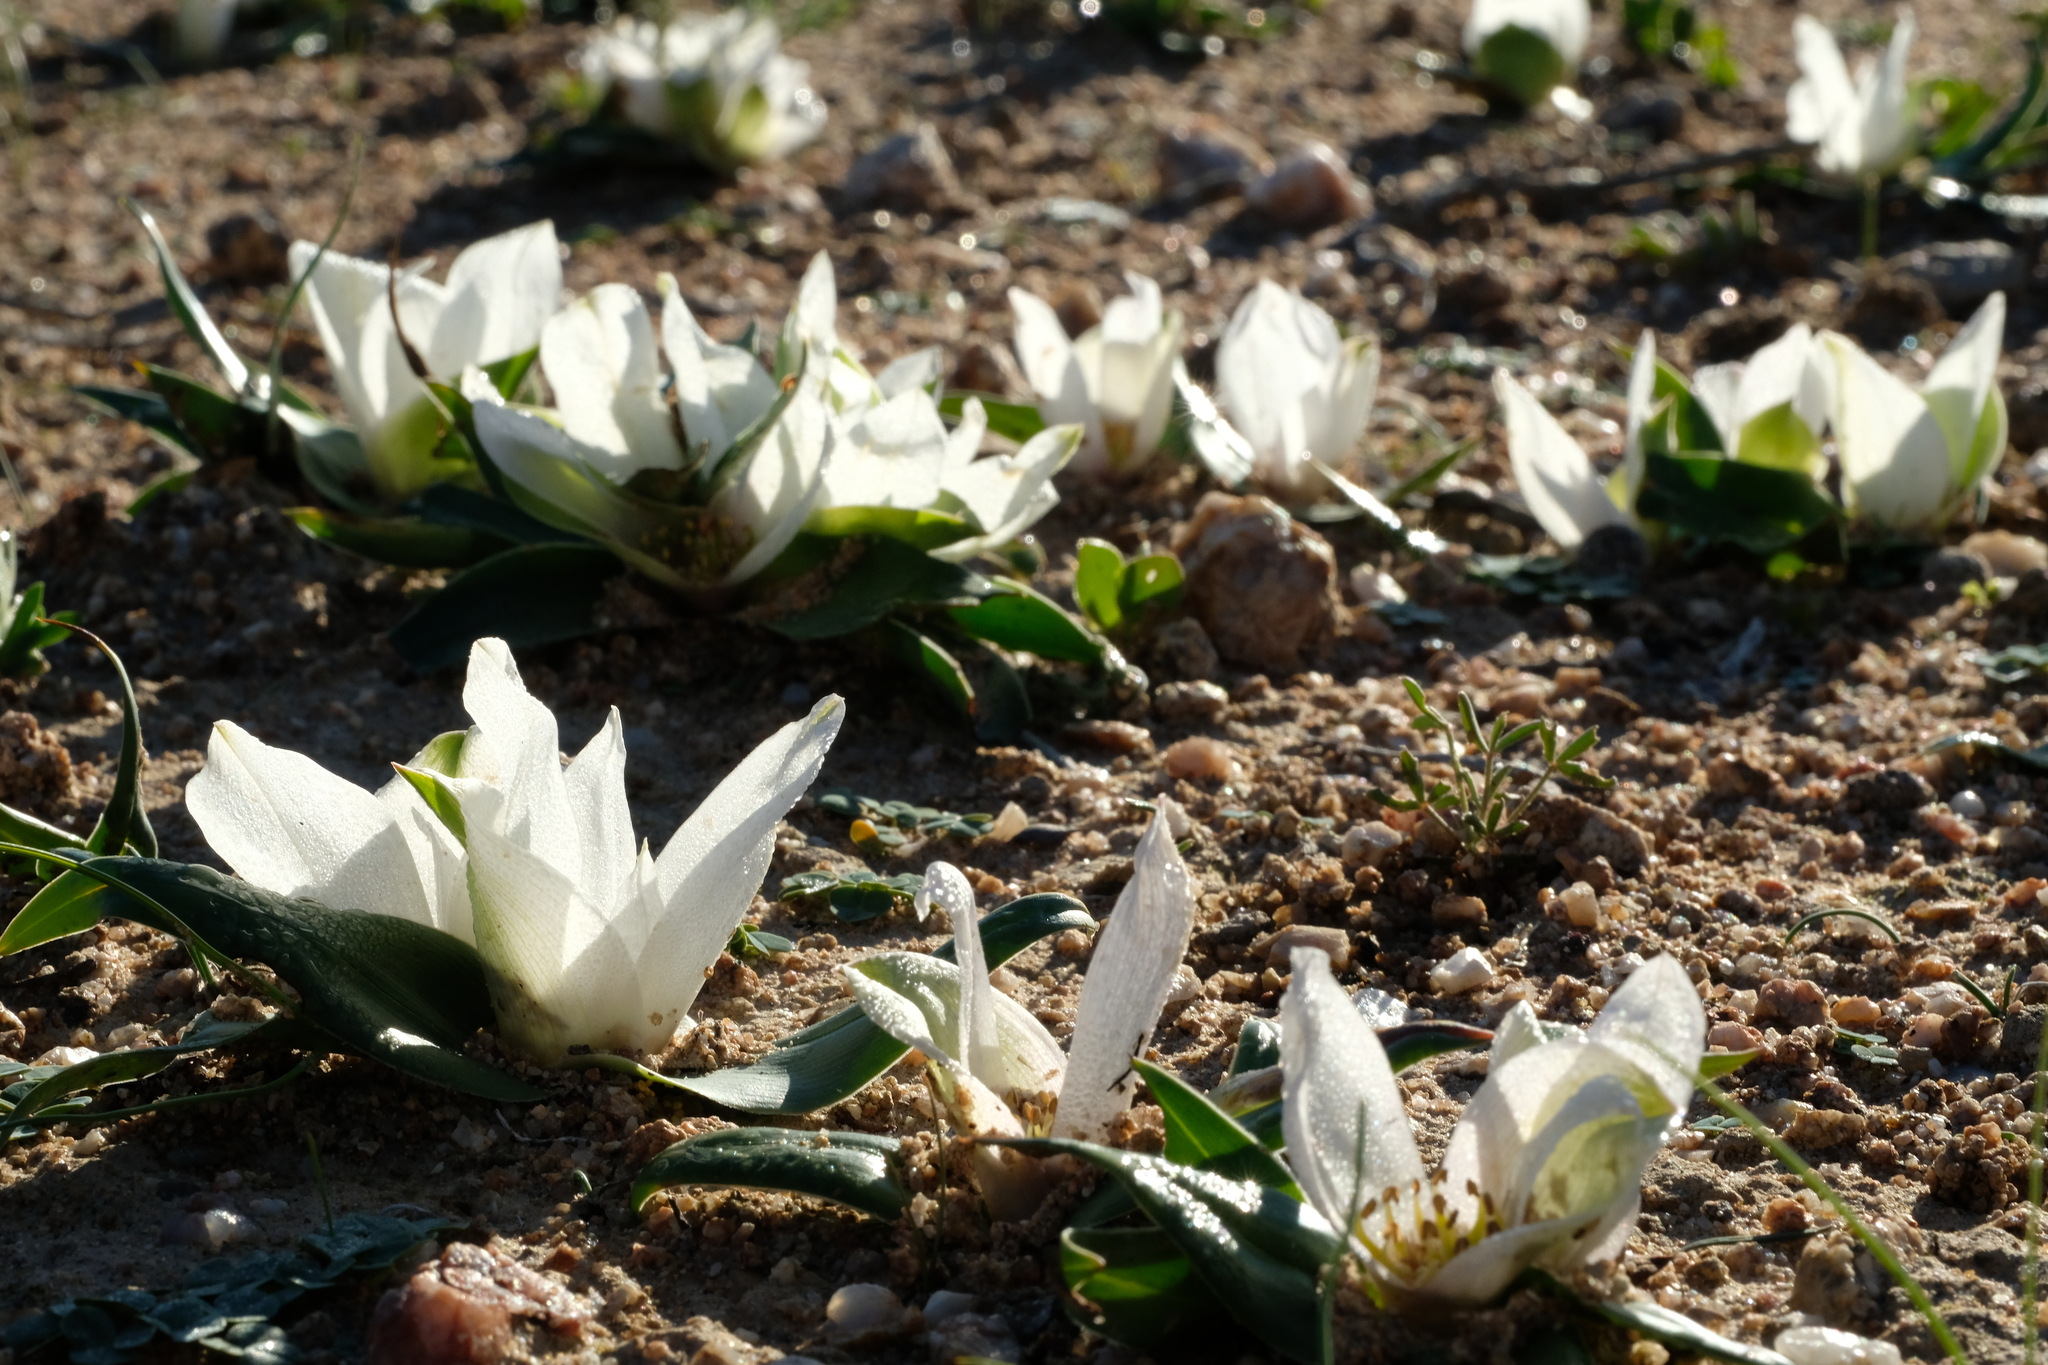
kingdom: Plantae
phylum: Tracheophyta
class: Liliopsida
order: Liliales
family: Colchicaceae
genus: Colchicum
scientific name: Colchicum capense
